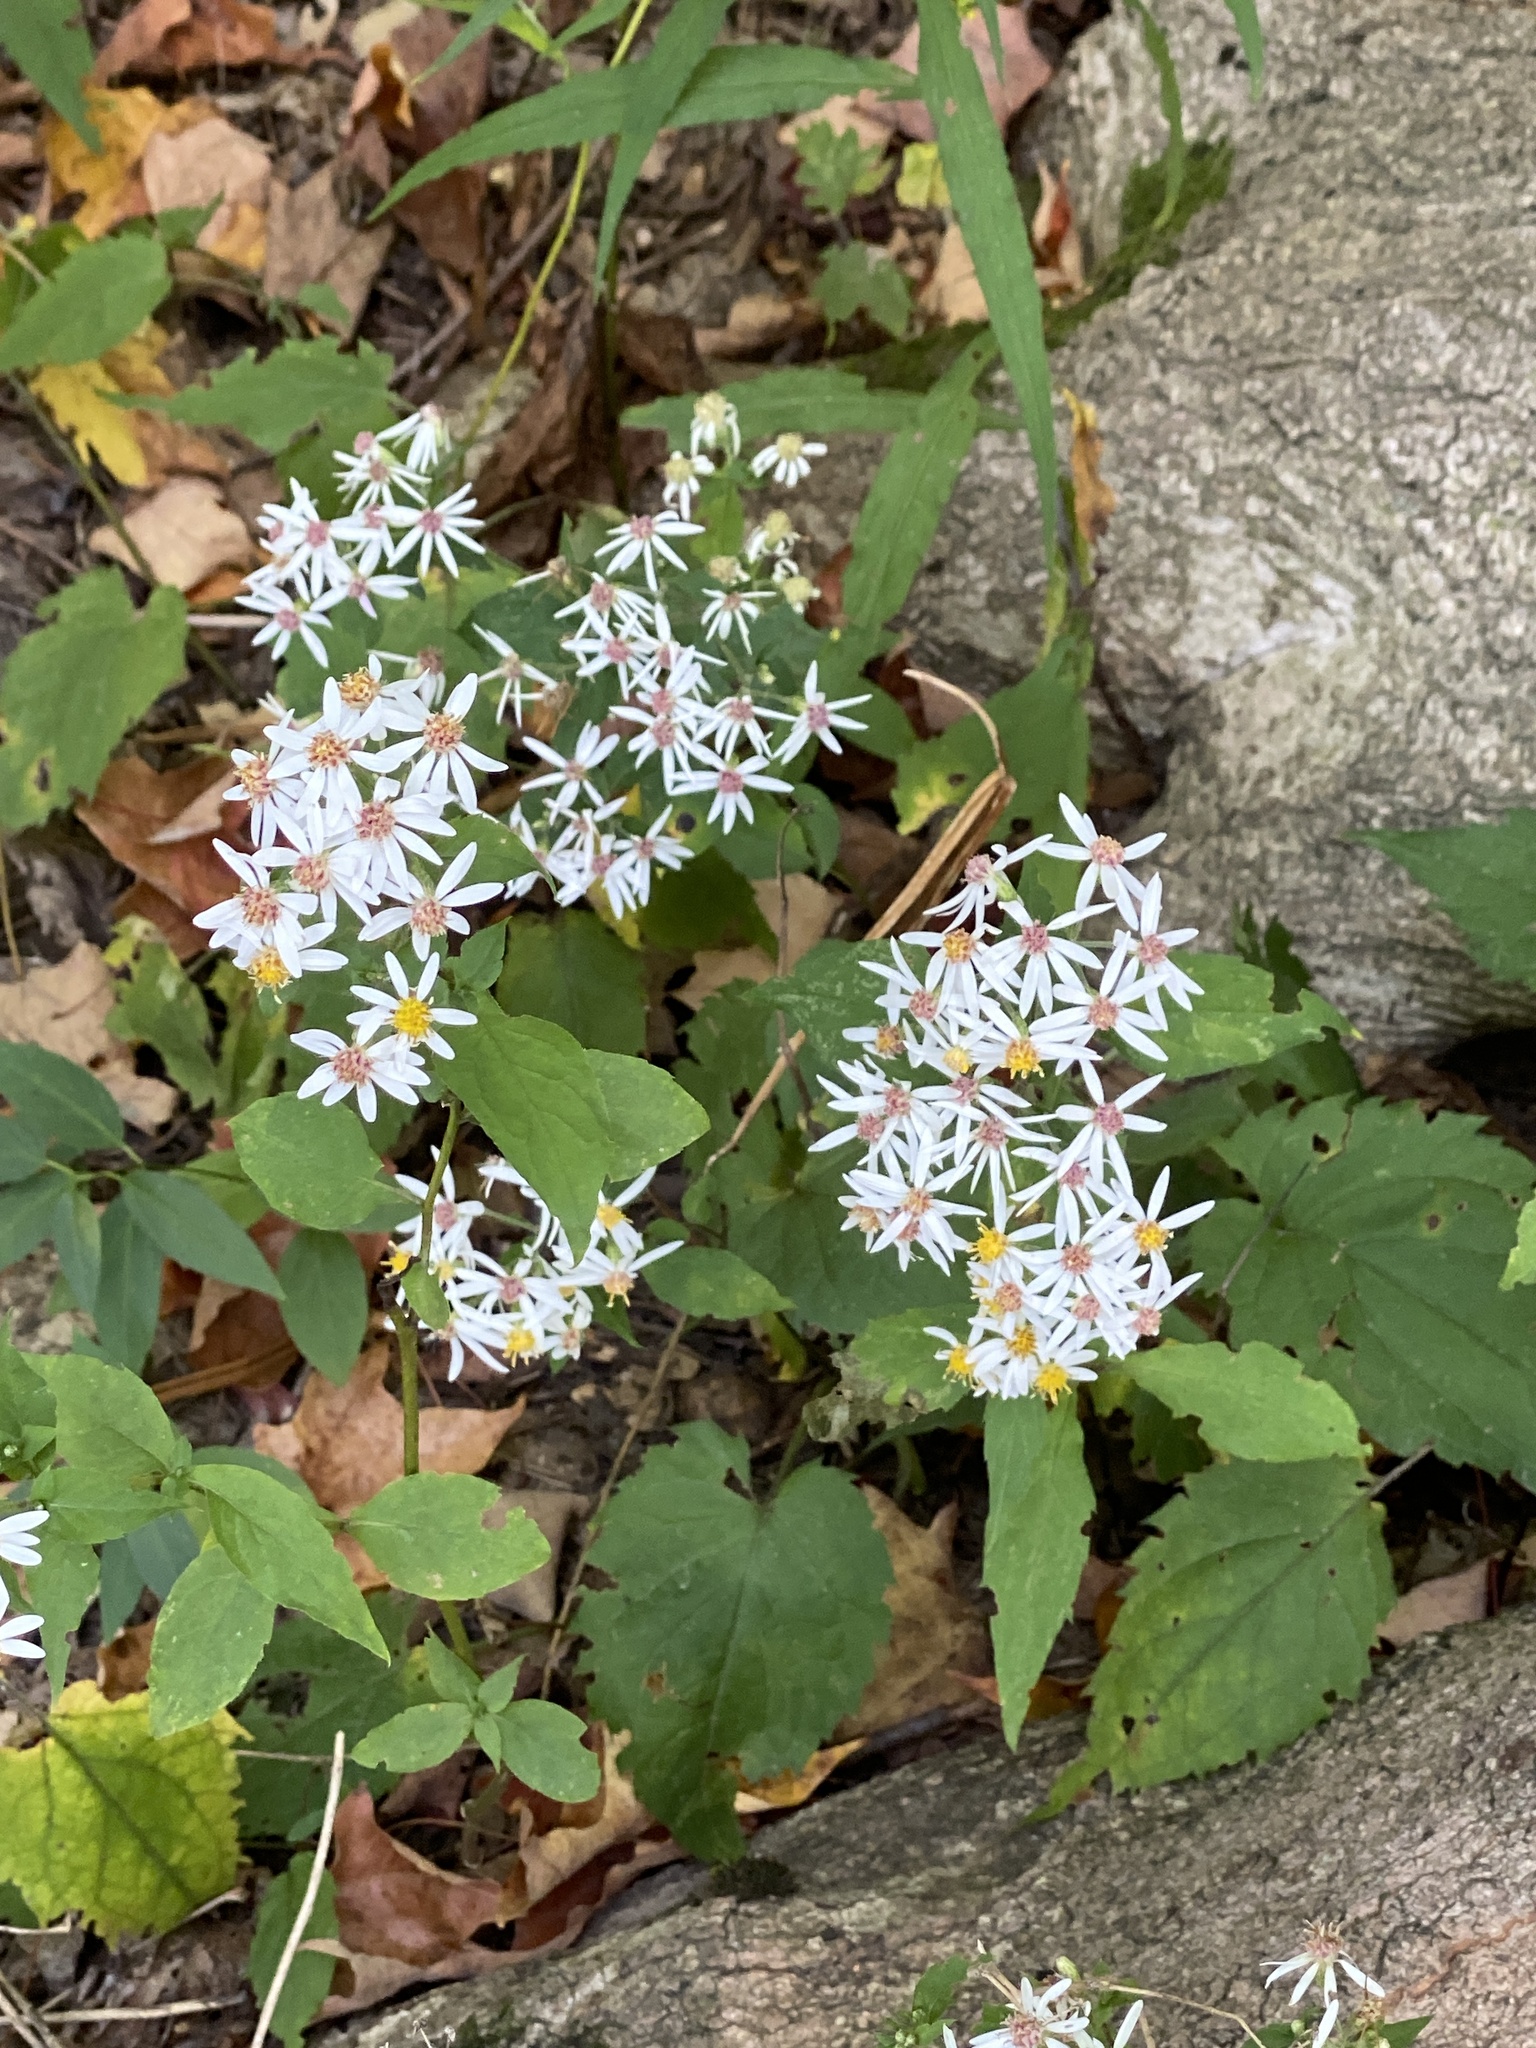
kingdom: Plantae
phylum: Tracheophyta
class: Magnoliopsida
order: Asterales
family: Asteraceae
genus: Eurybia
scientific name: Eurybia divaricata
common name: White wood aster
